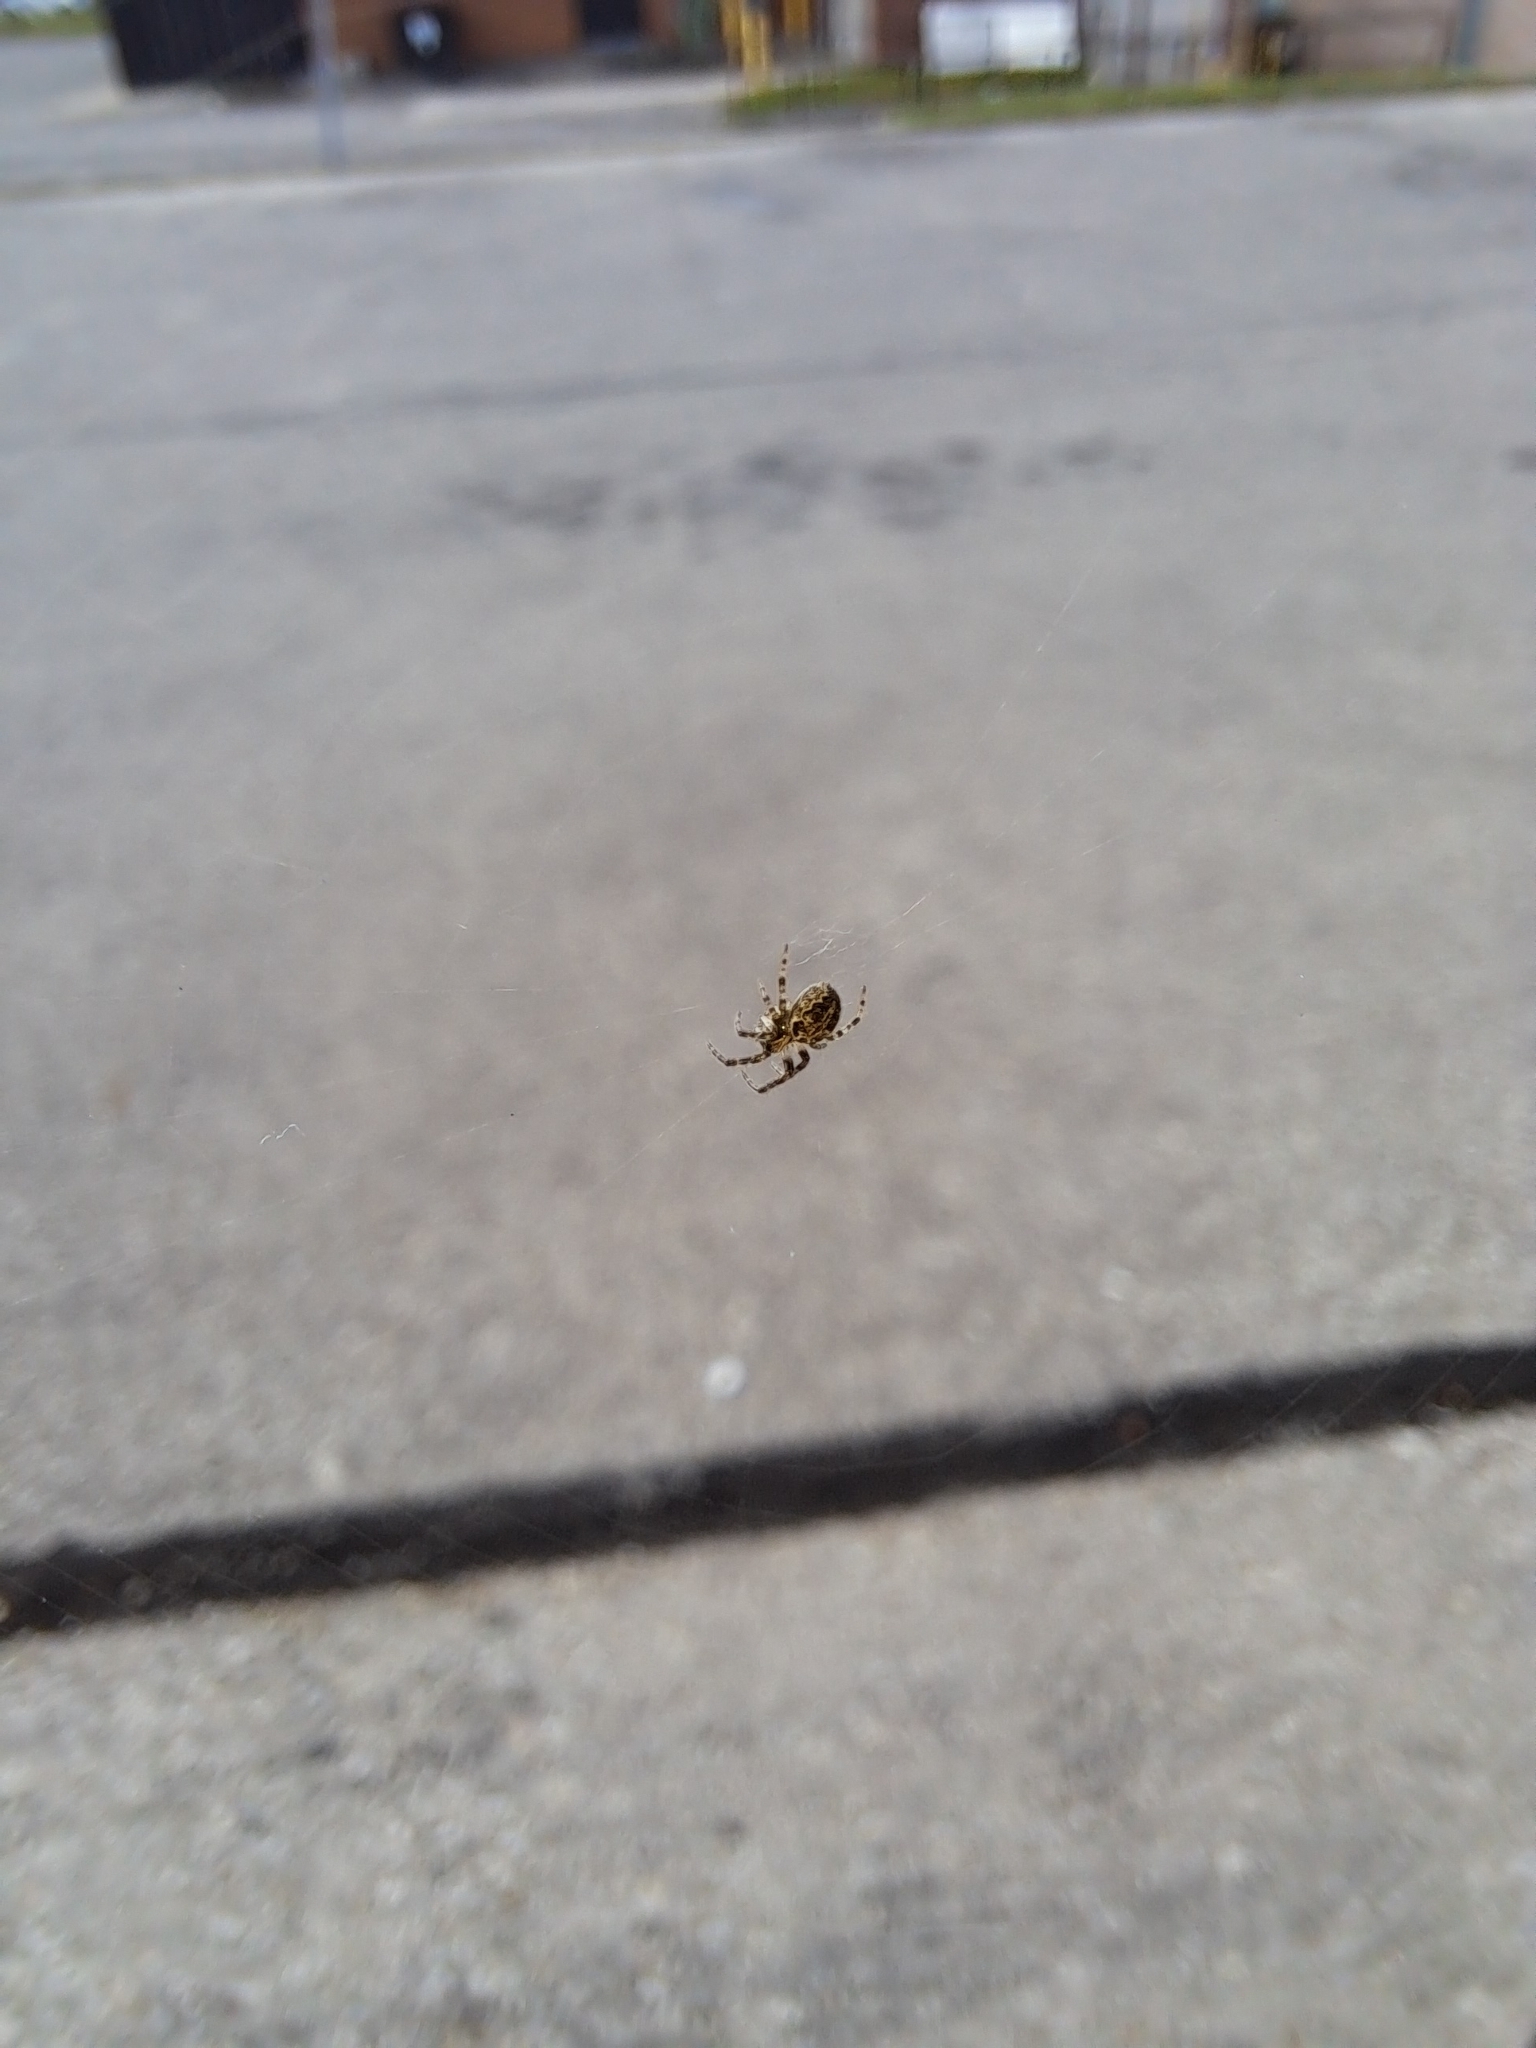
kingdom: Animalia
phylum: Arthropoda
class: Arachnida
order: Araneae
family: Araneidae
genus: Larinioides
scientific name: Larinioides sclopetarius
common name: Bridge orbweaver
